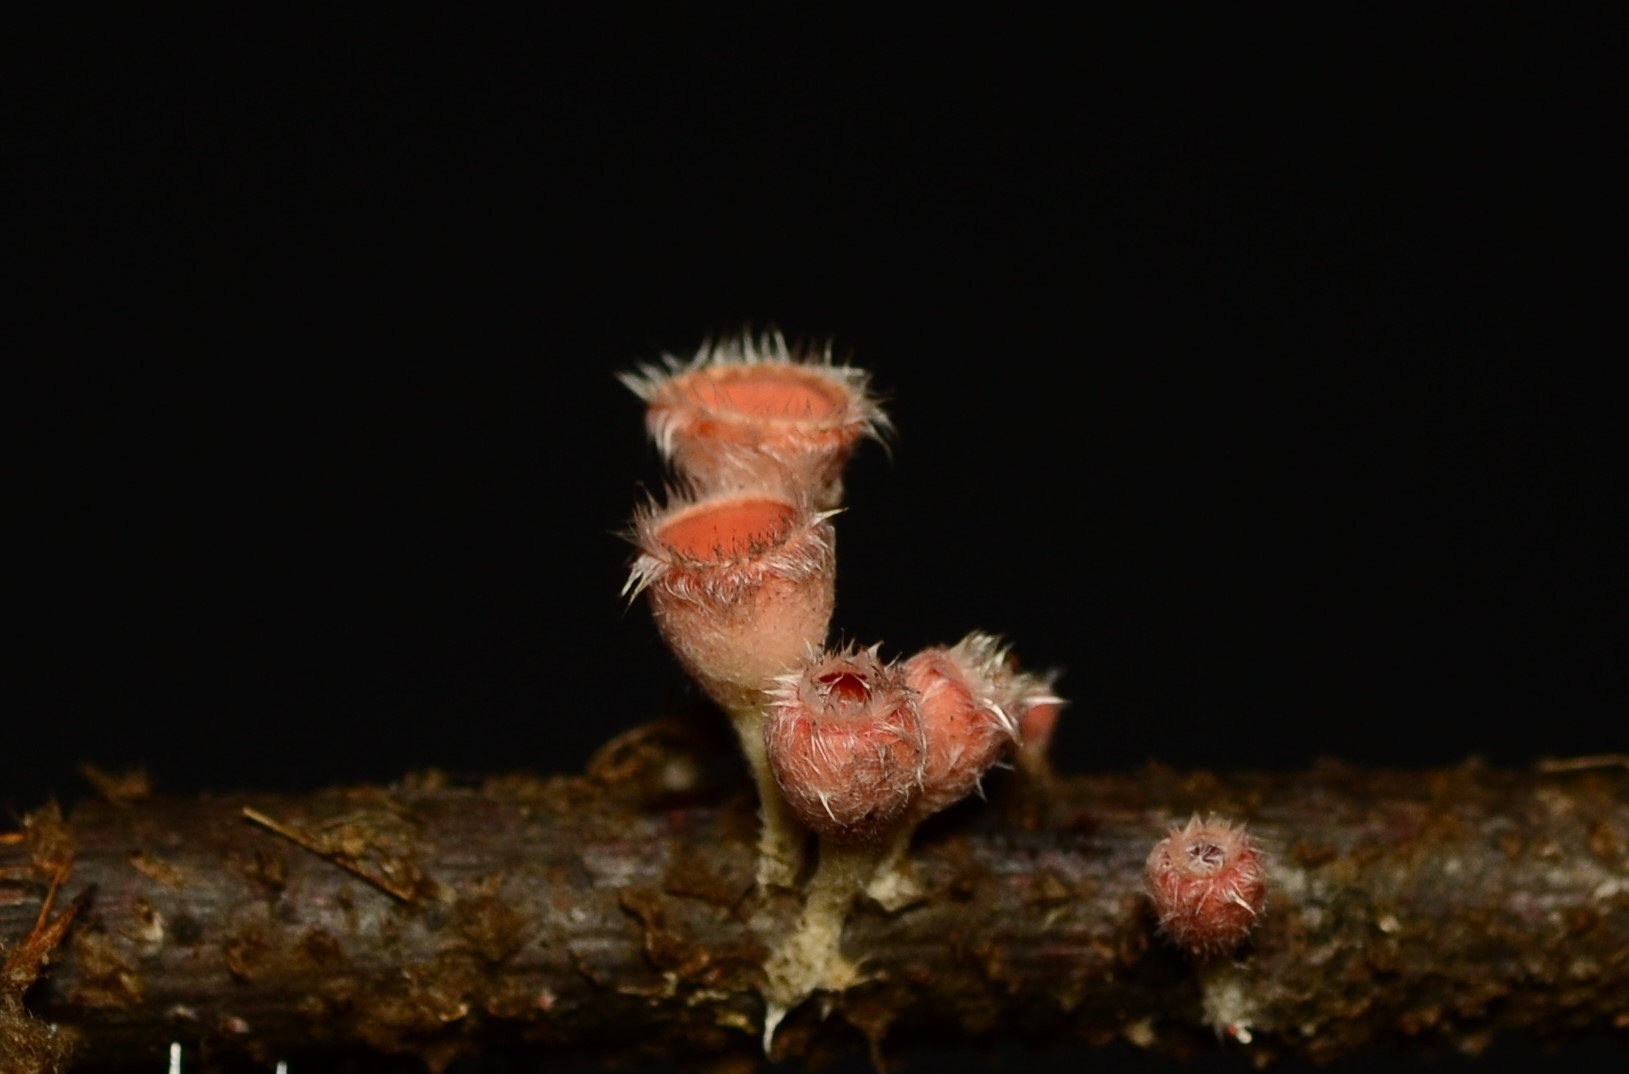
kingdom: Fungi
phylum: Ascomycota
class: Pezizomycetes
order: Pezizales
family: Sarcoscyphaceae
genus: Microstoma
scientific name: Microstoma floccosum
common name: Pink fringed faery cup
